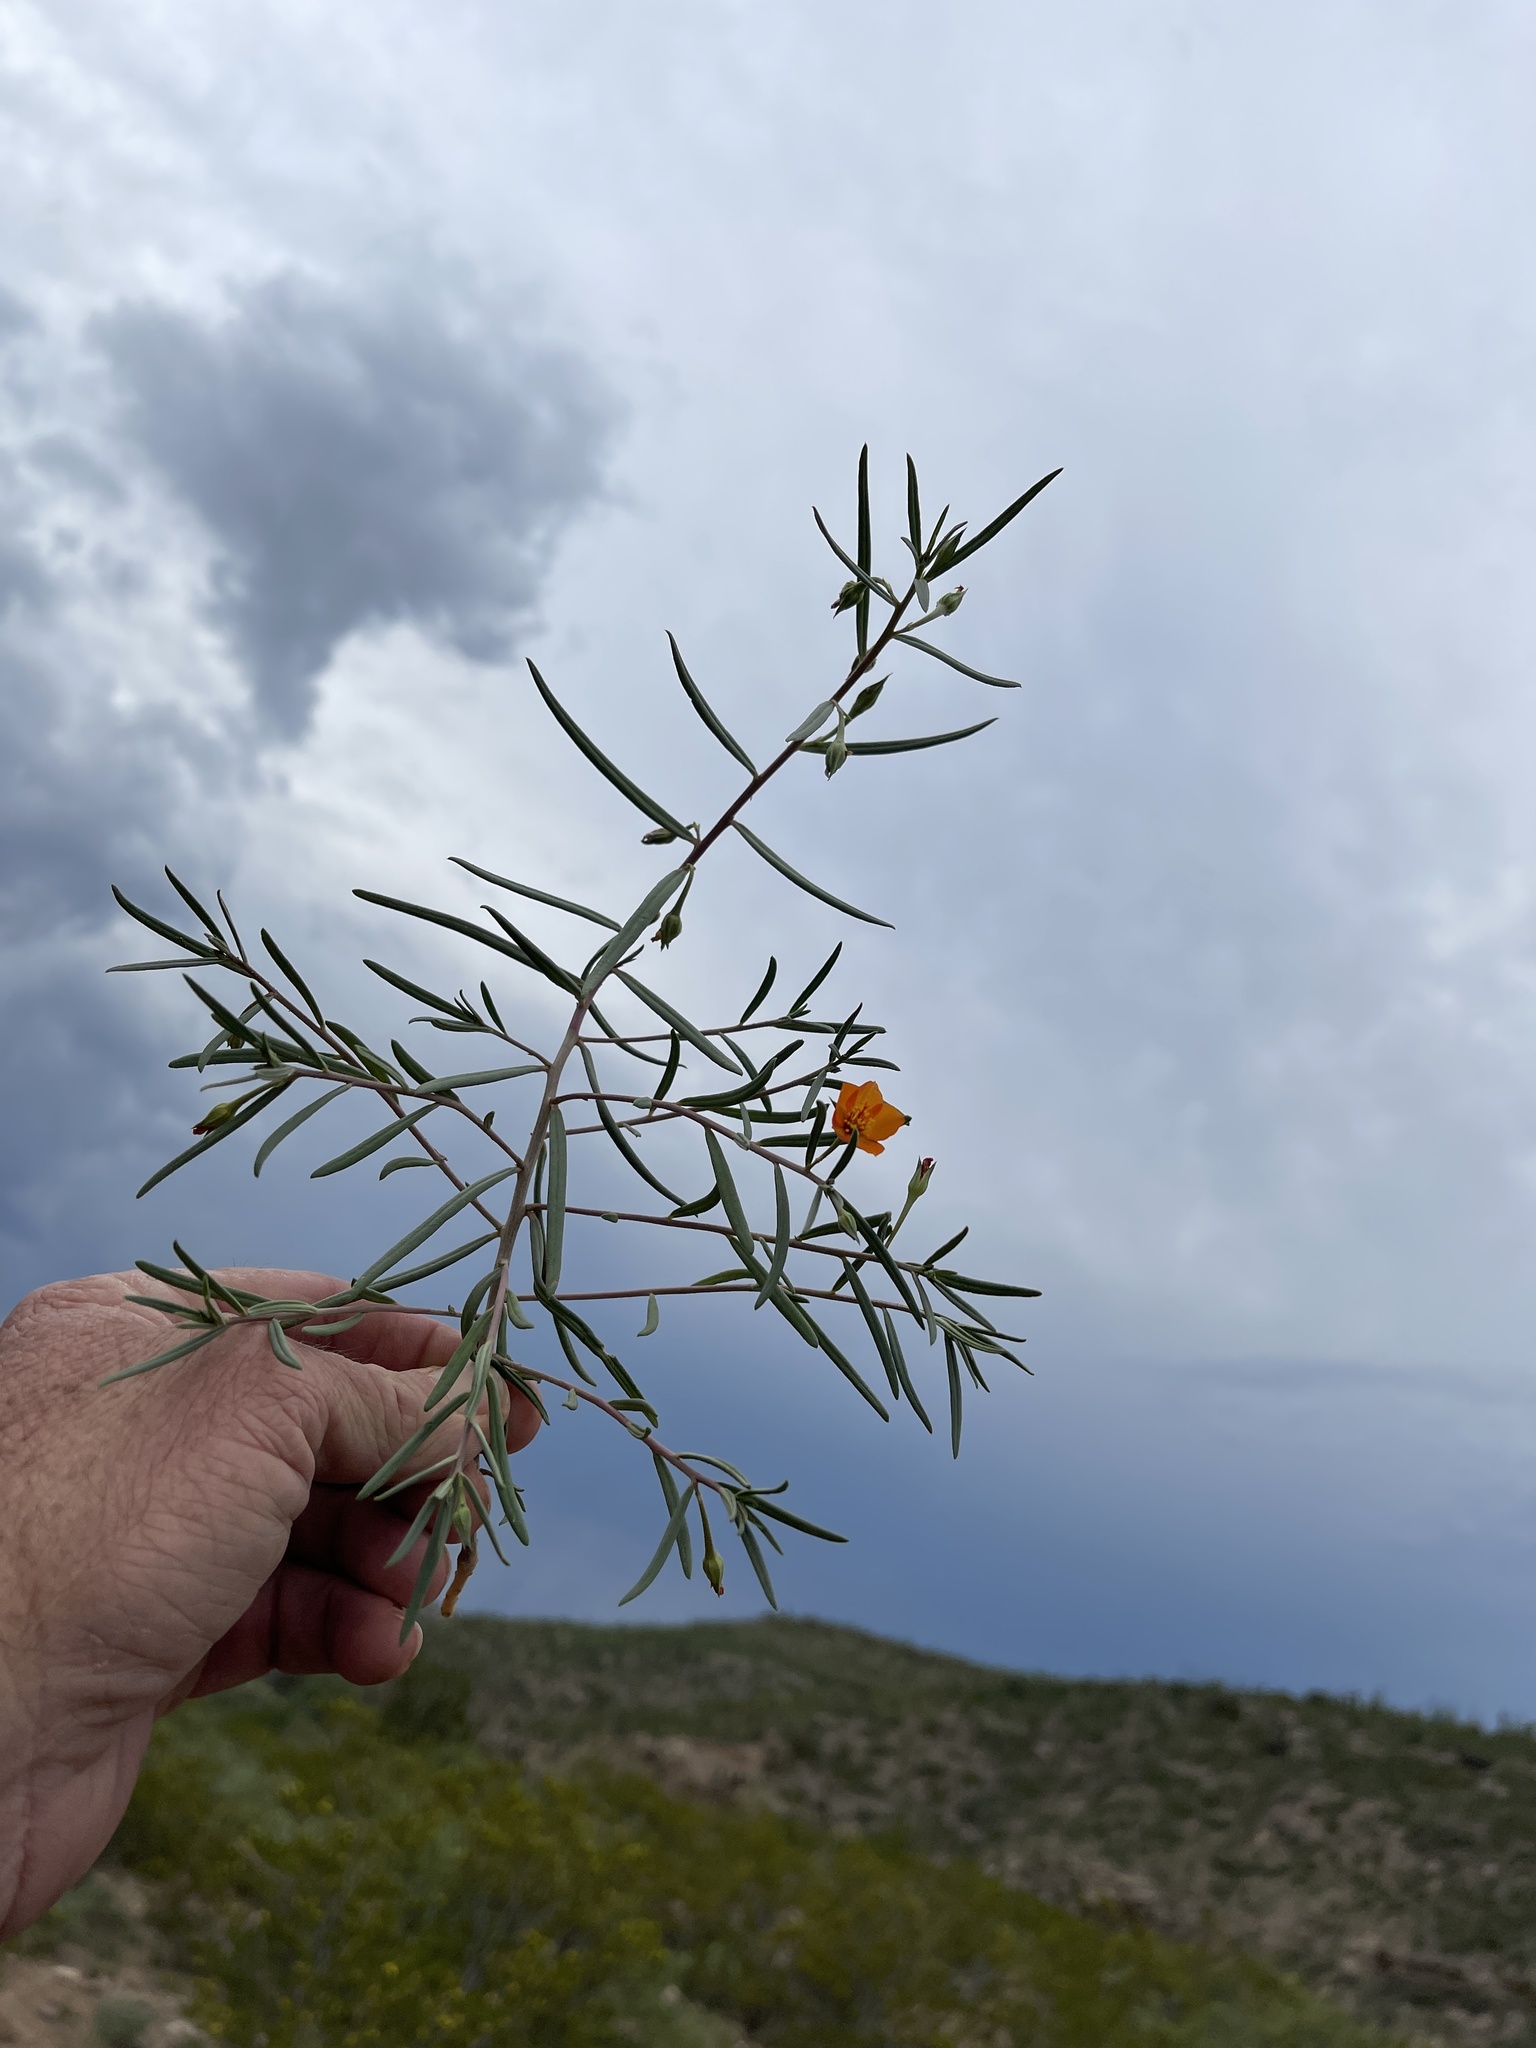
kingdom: Plantae
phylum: Tracheophyta
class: Magnoliopsida
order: Caryophyllales
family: Montiaceae
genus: Phemeranthus
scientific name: Phemeranthus aurantiacus
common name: Orange fameflower
